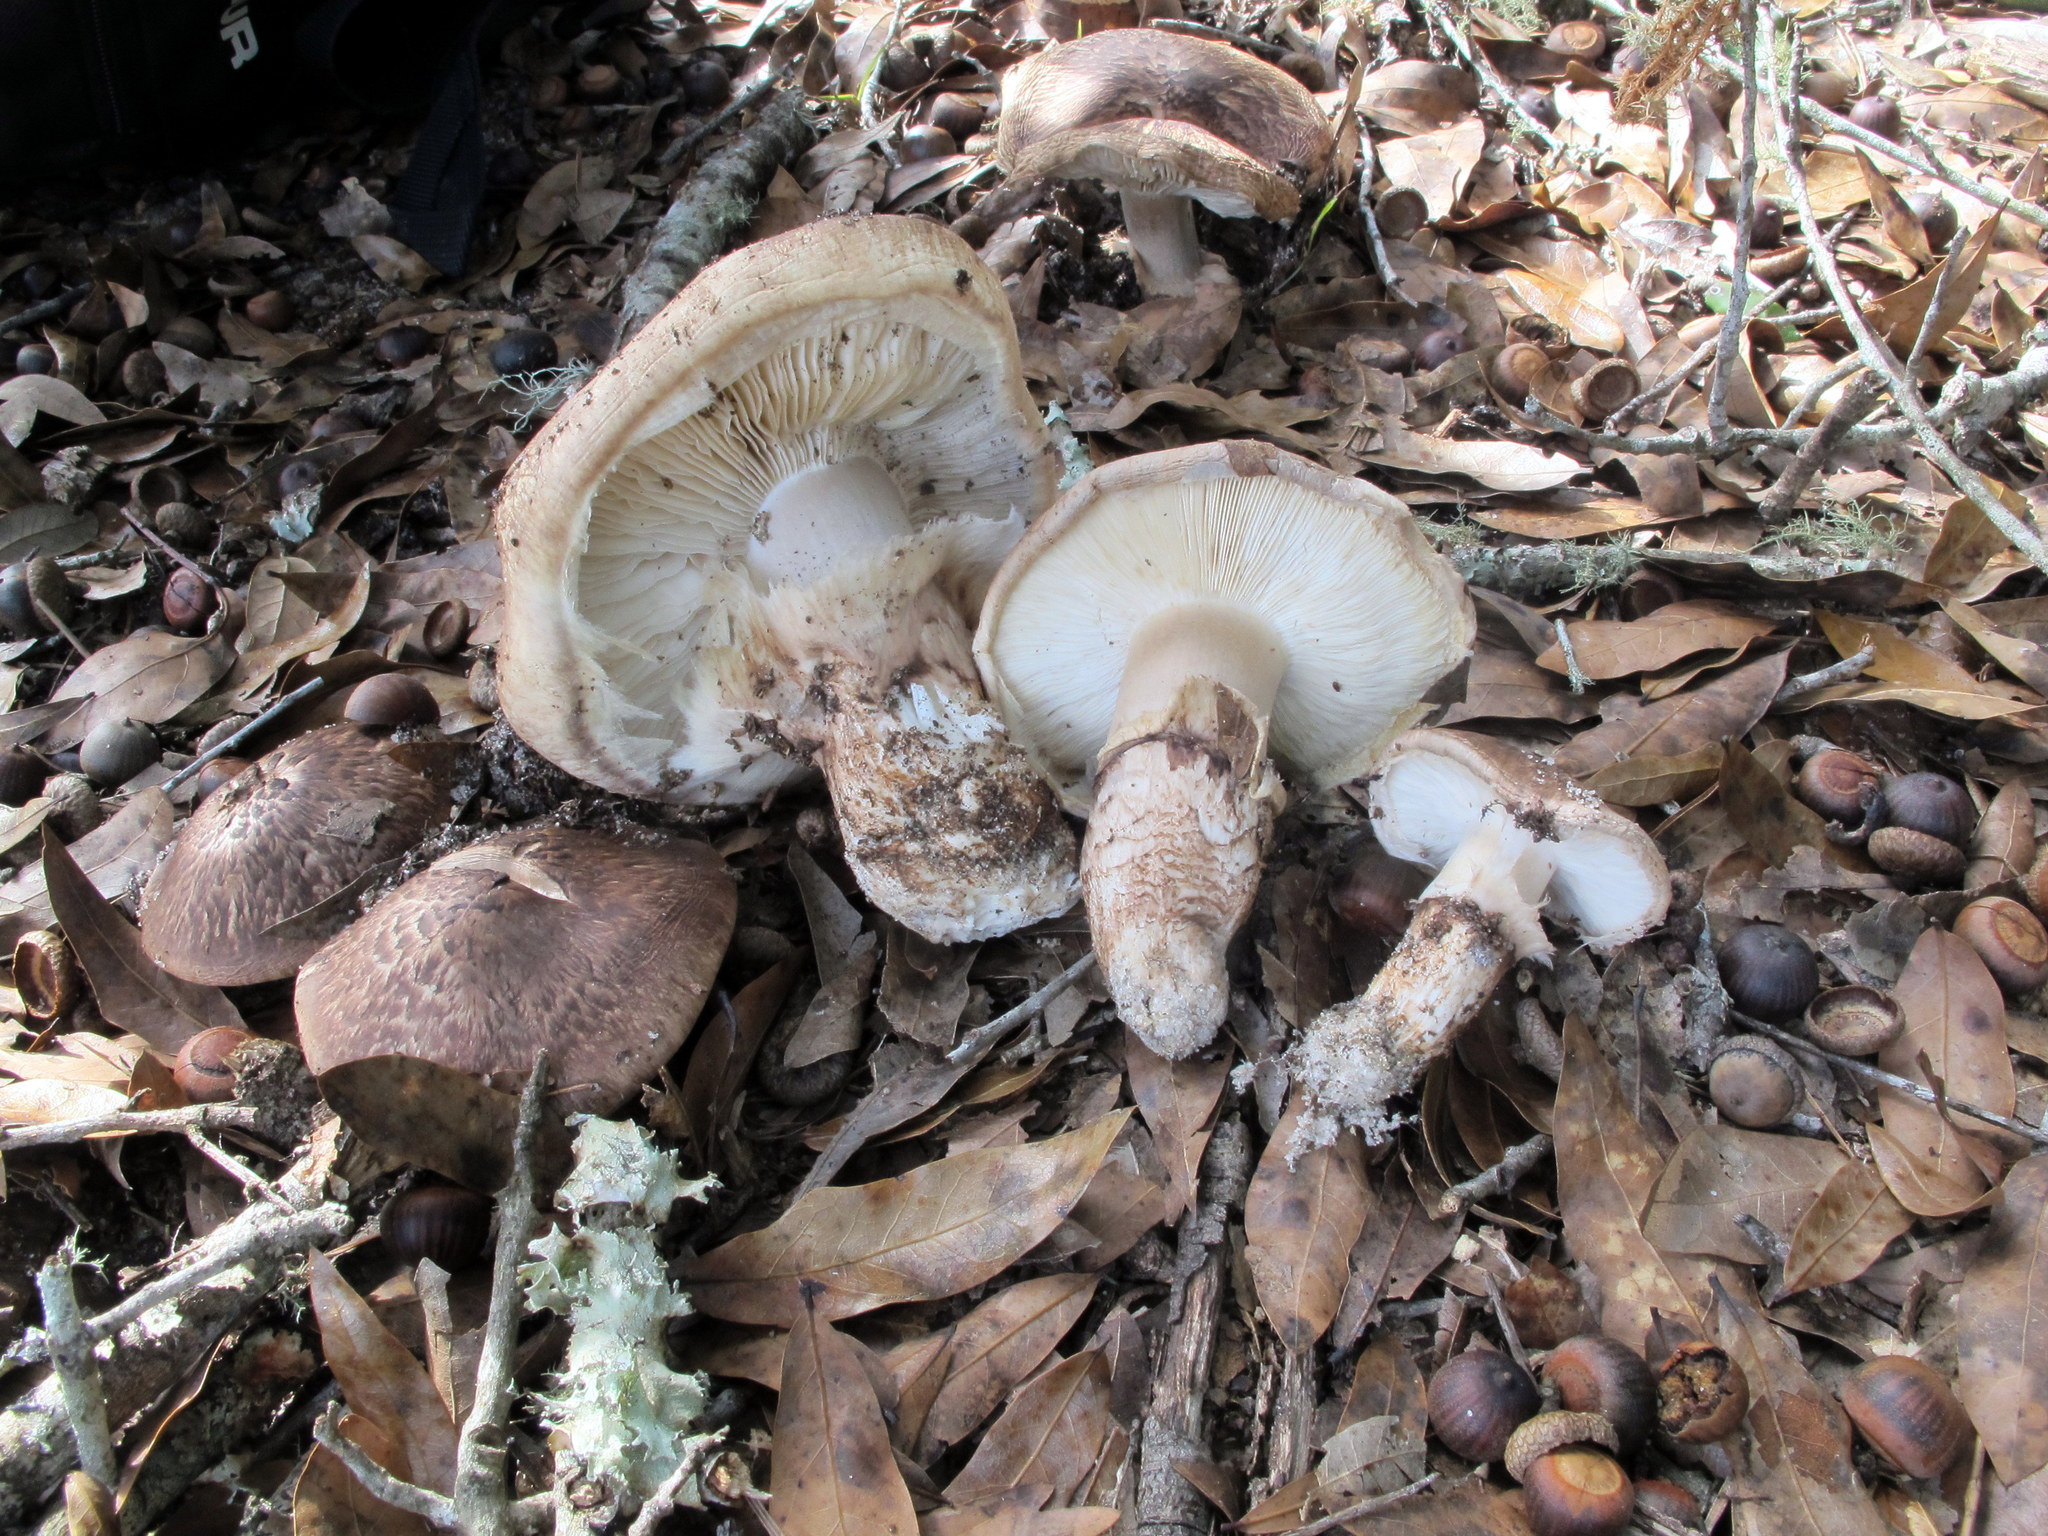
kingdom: Fungi
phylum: Basidiomycota
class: Agaricomycetes
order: Agaricales
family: Tricholomataceae
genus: Tricholoma
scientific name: Tricholoma caligatum
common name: True booted knight
